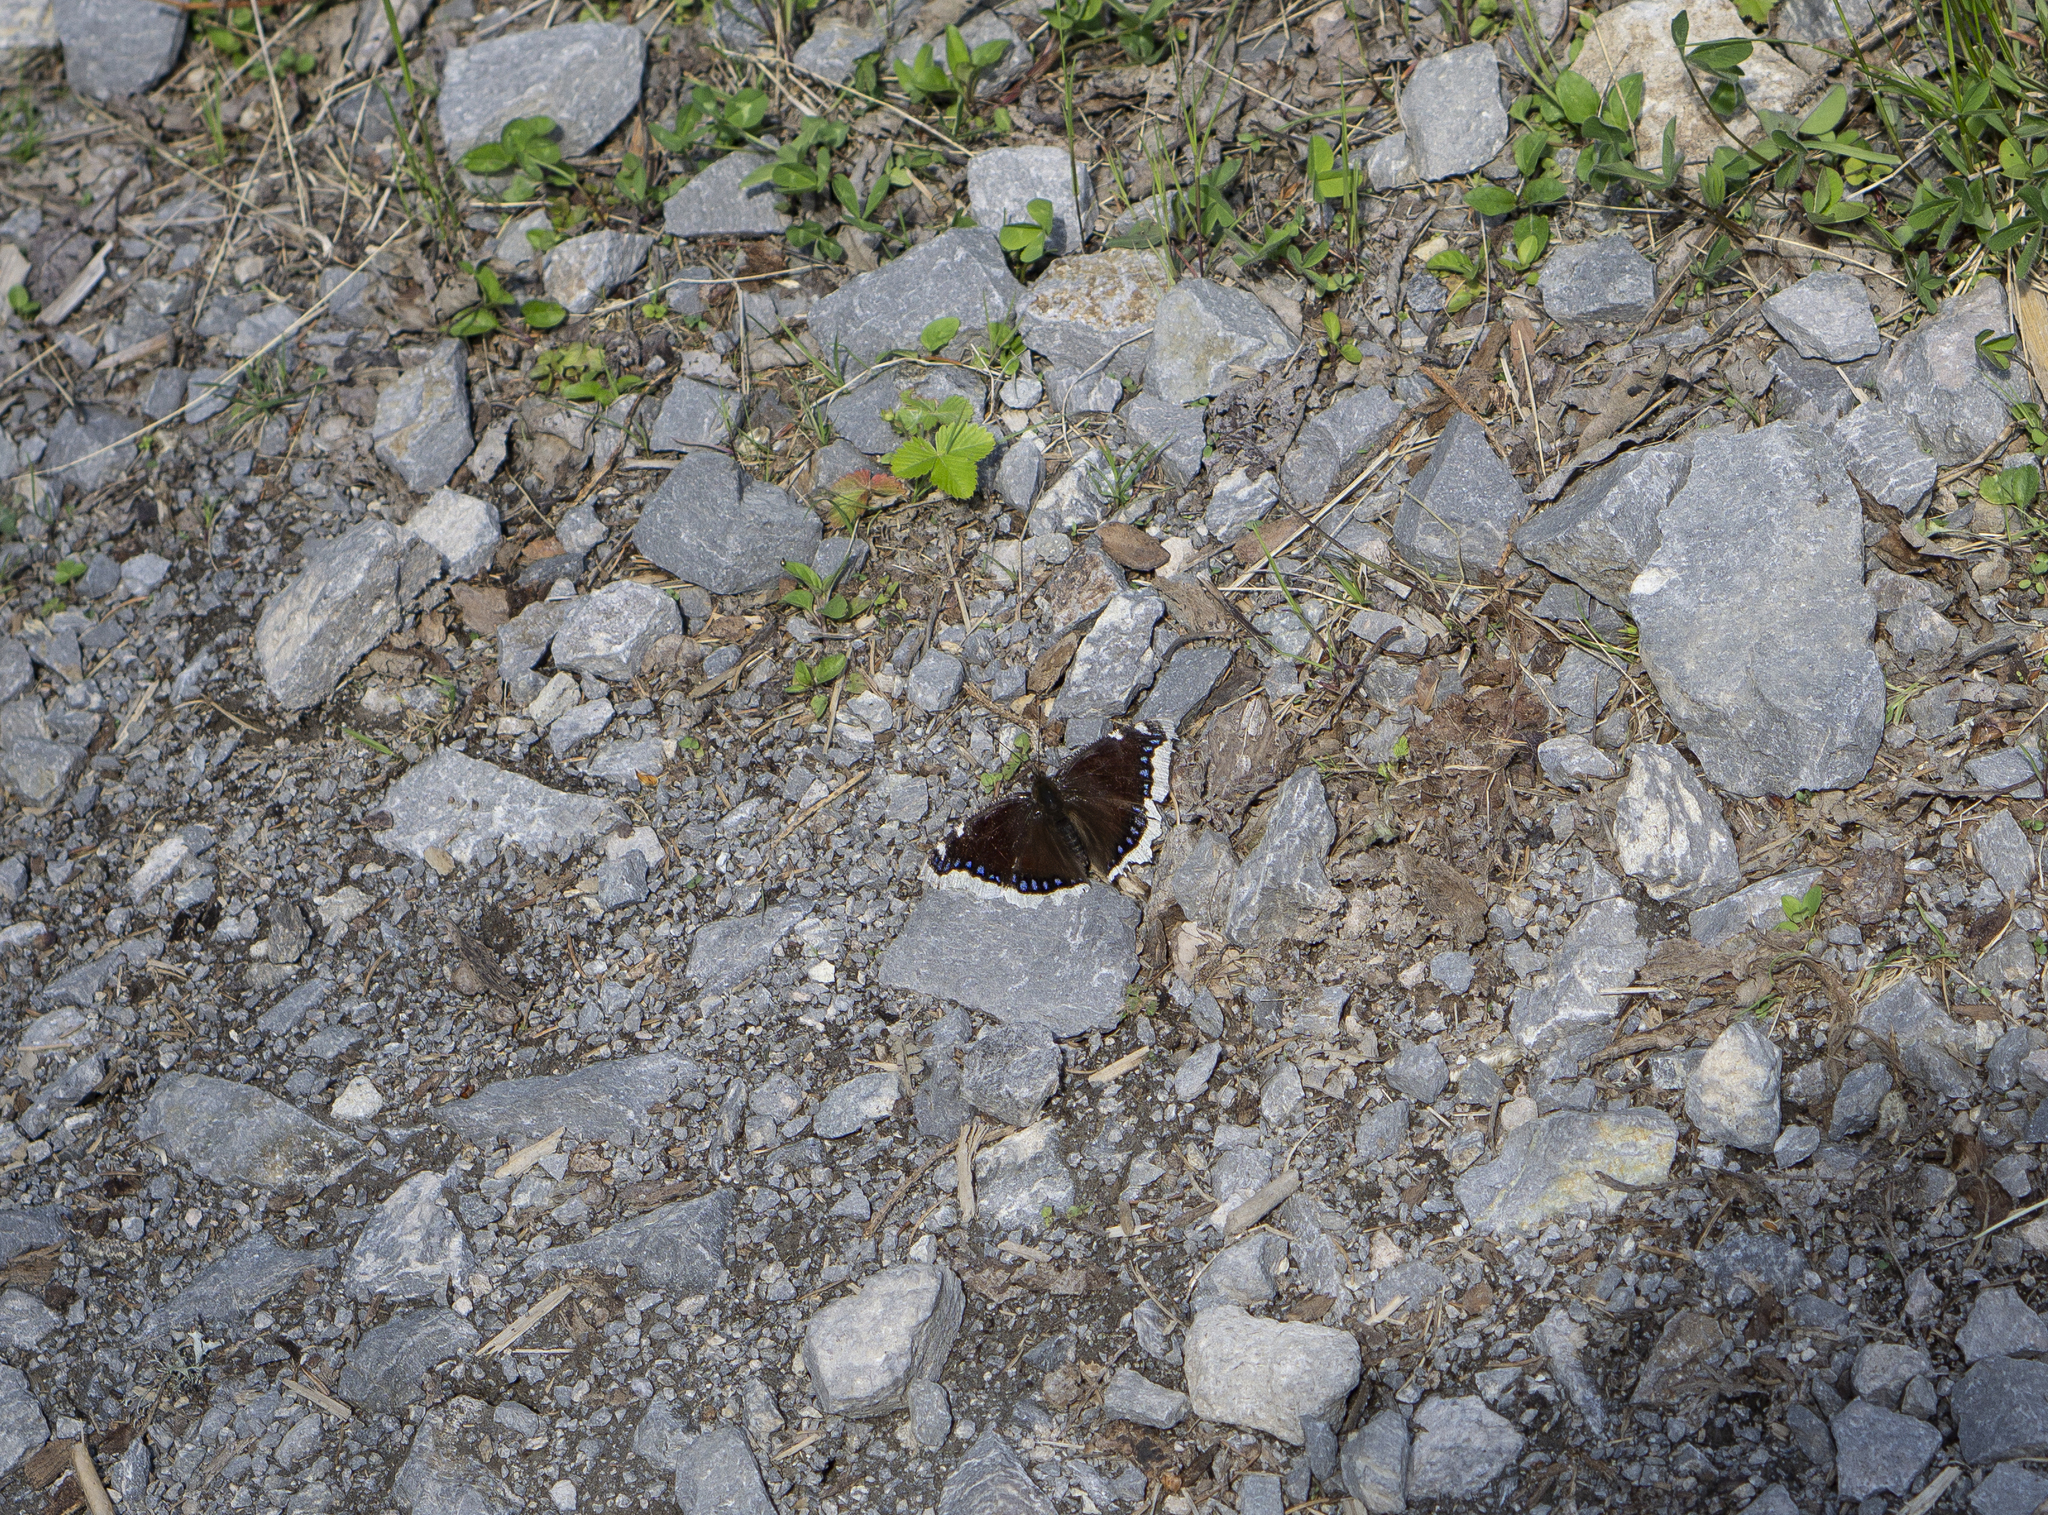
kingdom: Animalia
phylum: Arthropoda
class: Insecta
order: Lepidoptera
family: Nymphalidae
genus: Nymphalis
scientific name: Nymphalis antiopa
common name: Camberwell beauty
